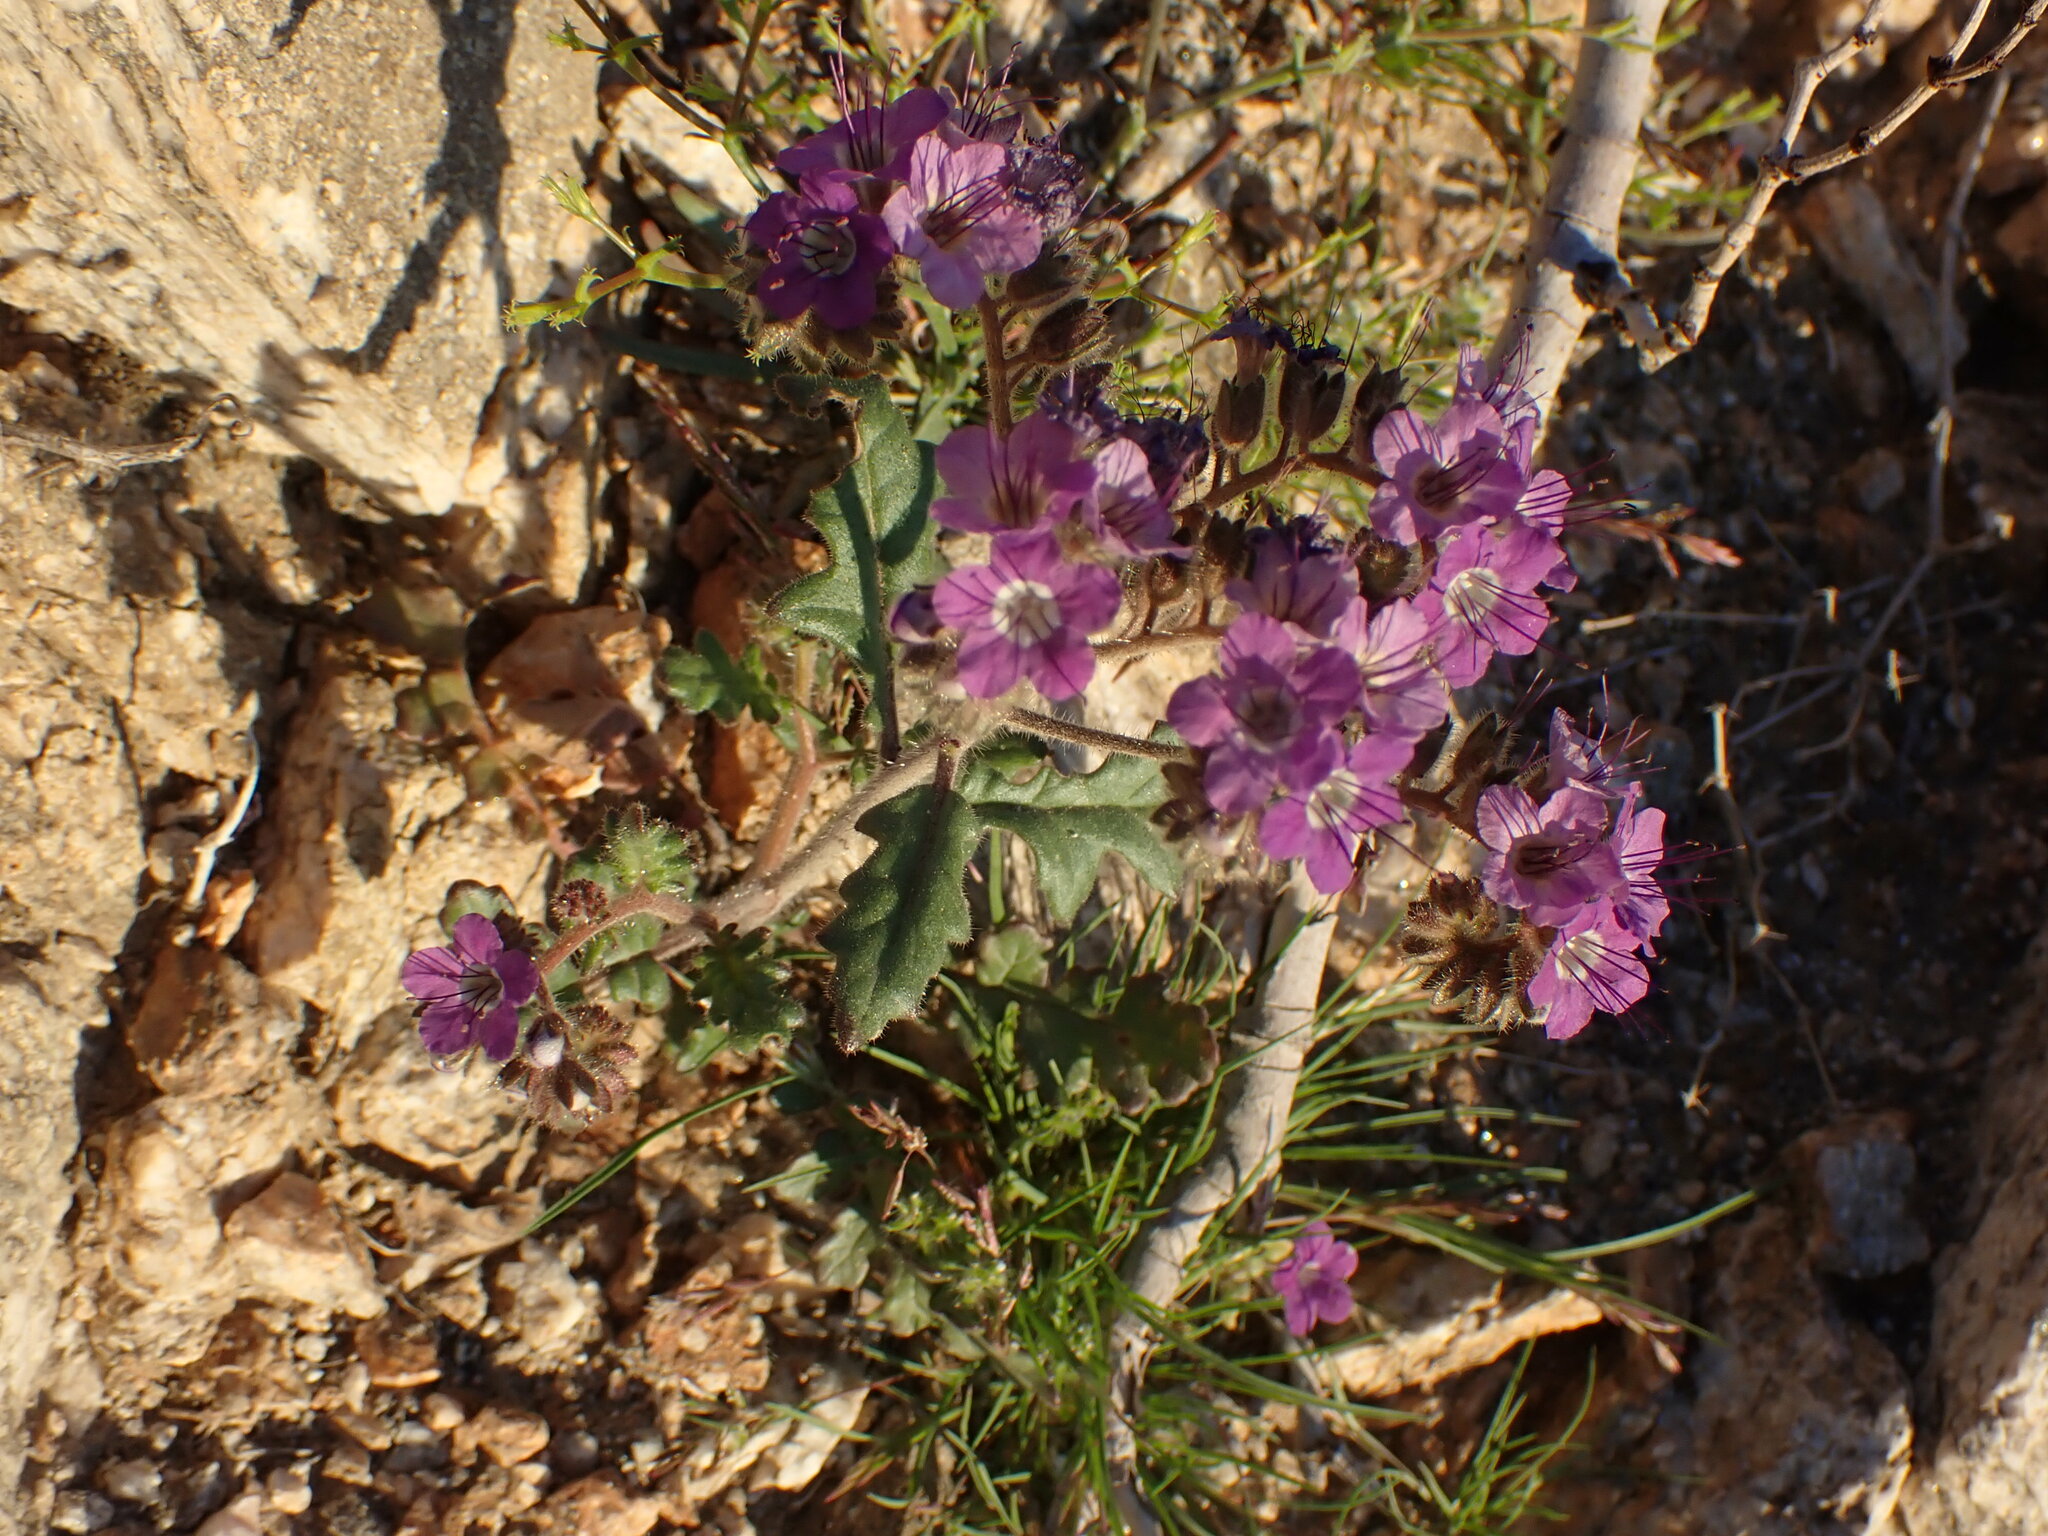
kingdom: Plantae
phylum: Tracheophyta
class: Magnoliopsida
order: Boraginales
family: Hydrophyllaceae
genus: Phacelia
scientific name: Phacelia crenulata
